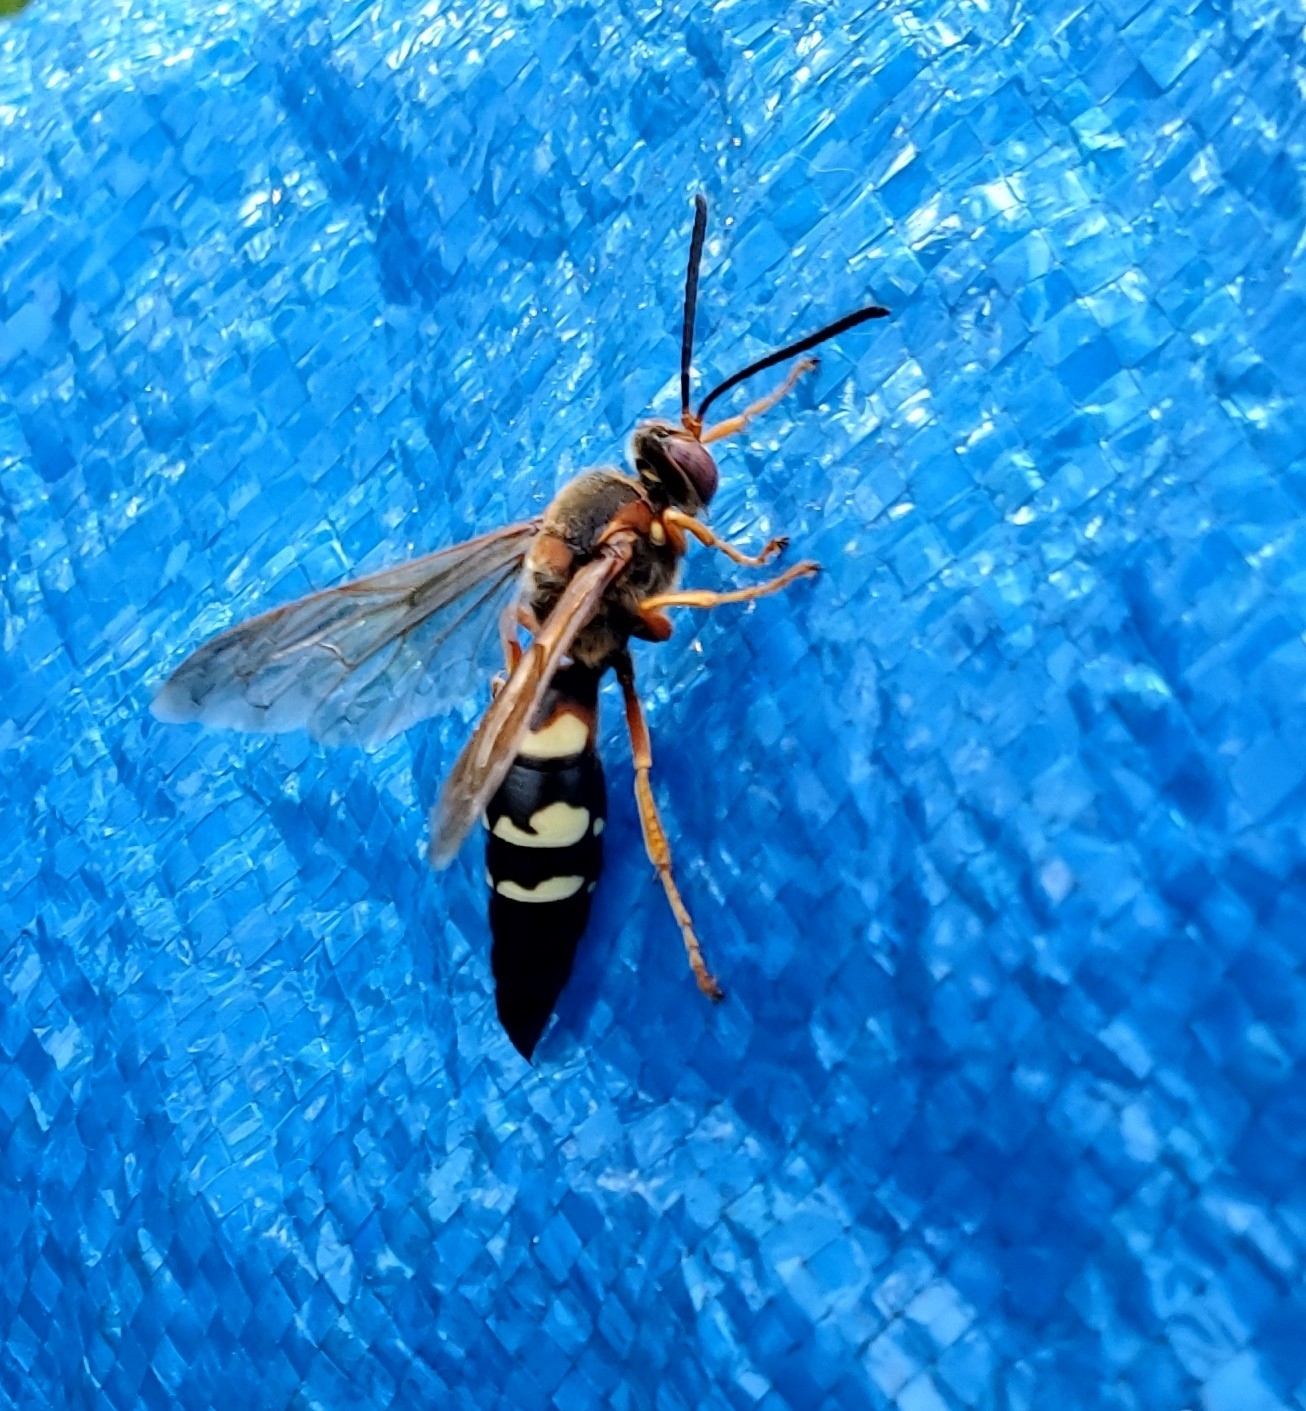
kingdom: Animalia
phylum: Arthropoda
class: Insecta
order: Hymenoptera
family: Crabronidae
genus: Sphecius
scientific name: Sphecius speciosus
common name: Cicada killer
